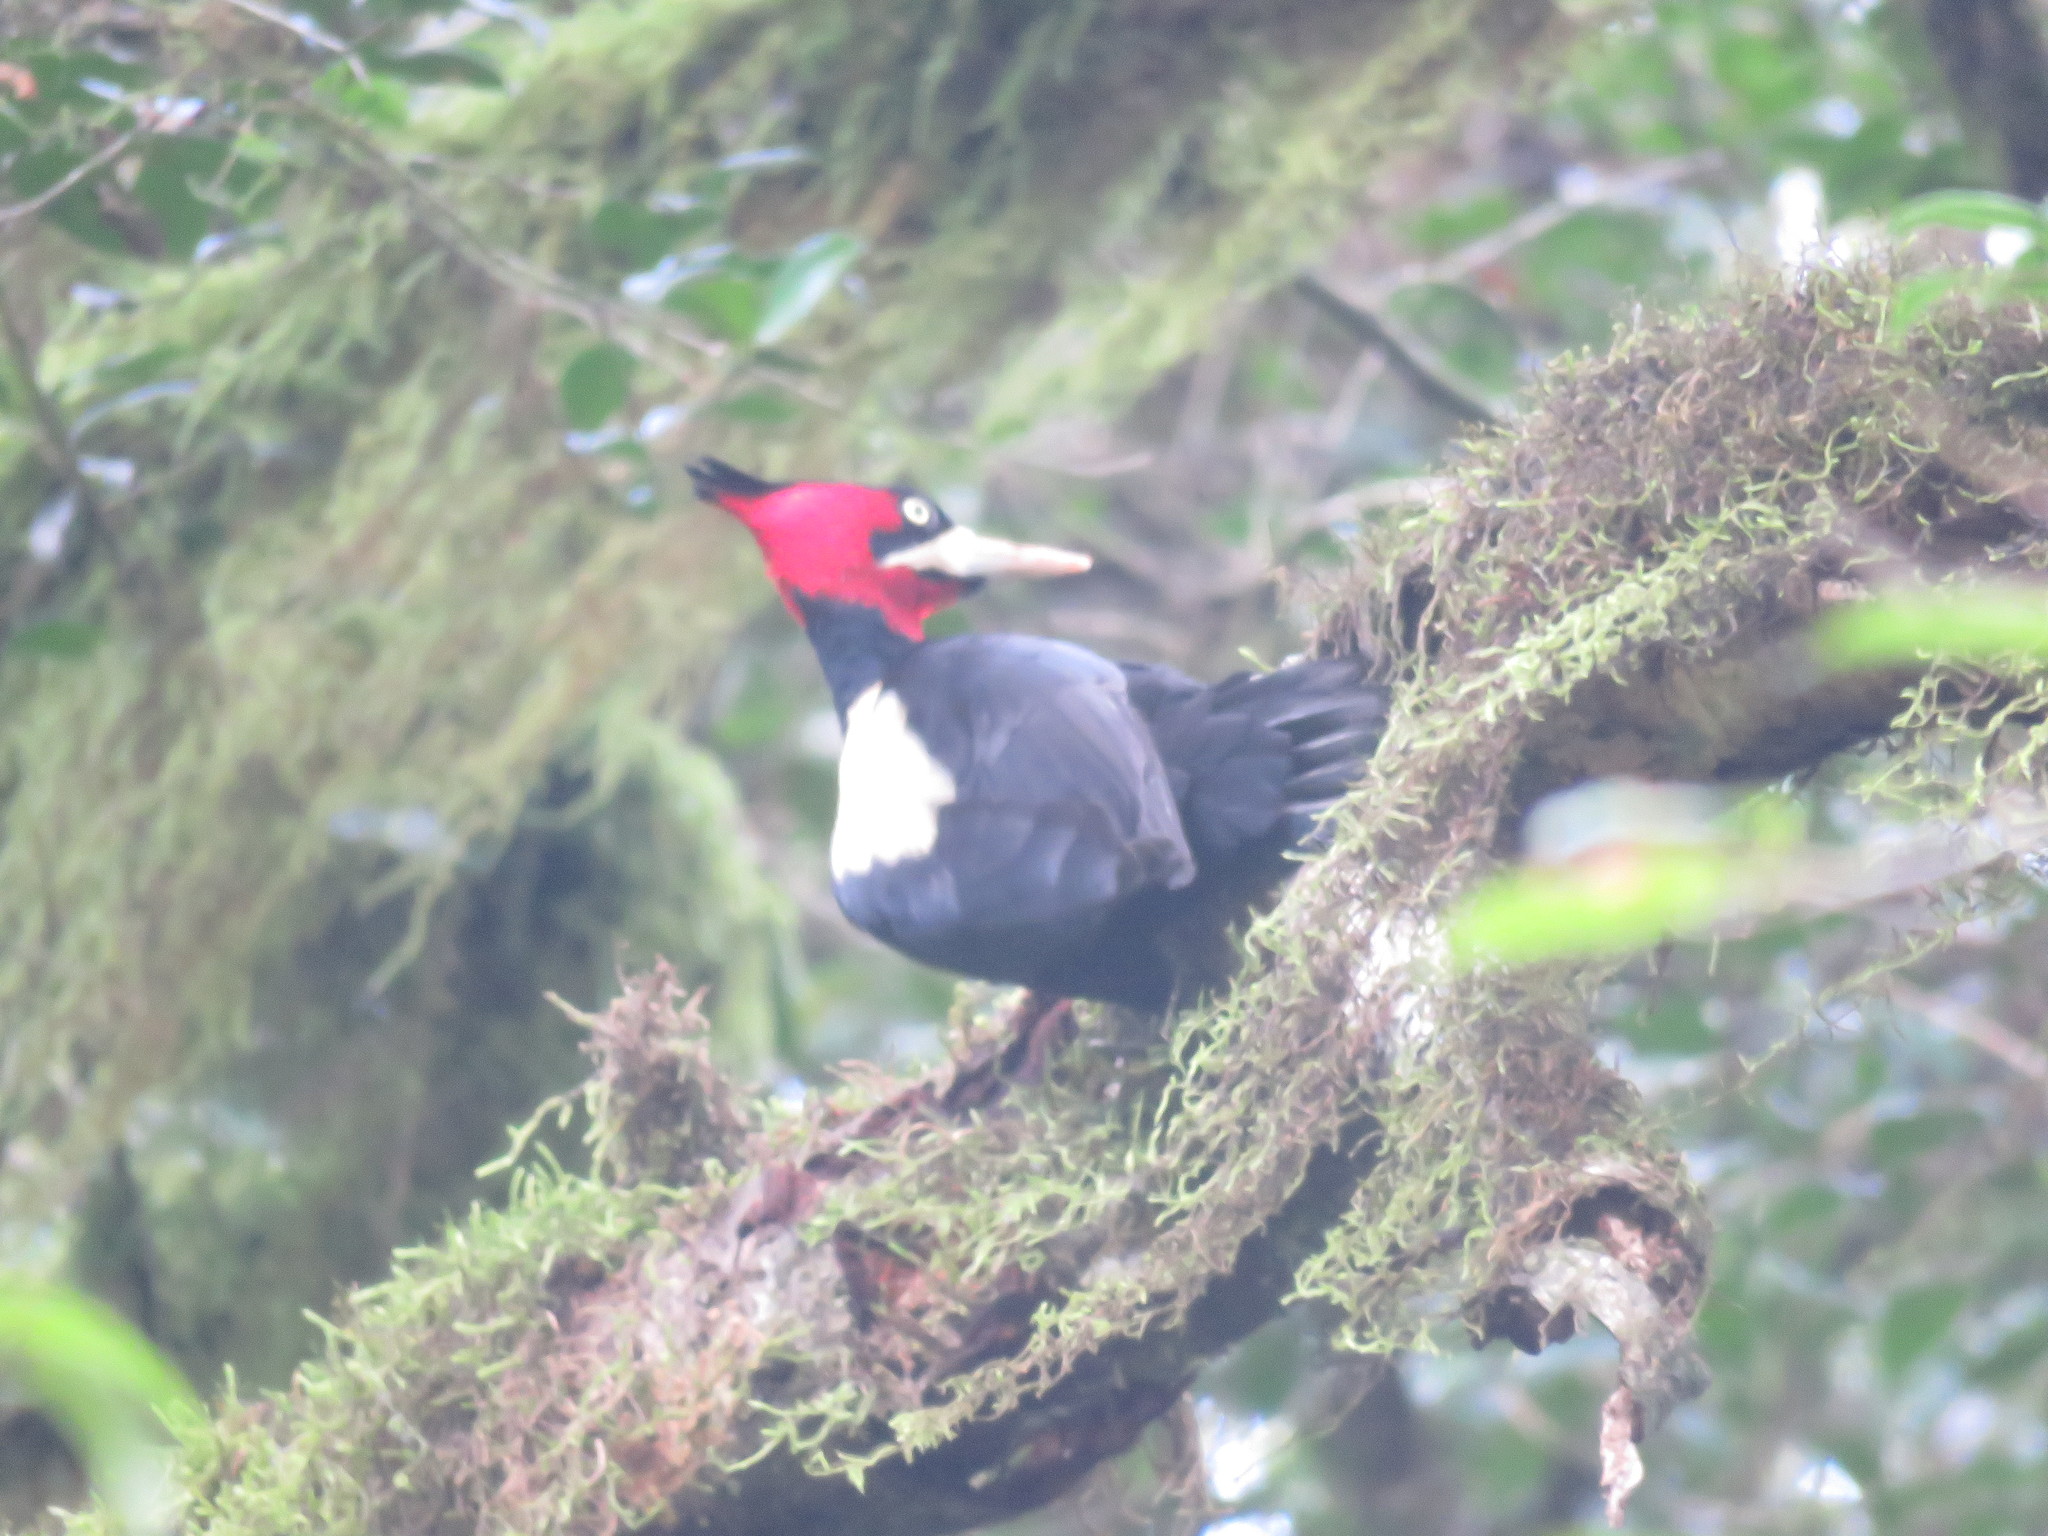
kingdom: Animalia
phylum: Chordata
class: Aves
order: Piciformes
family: Picidae
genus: Campephilus
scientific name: Campephilus leucopogon
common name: Cream-backed woodpecker
